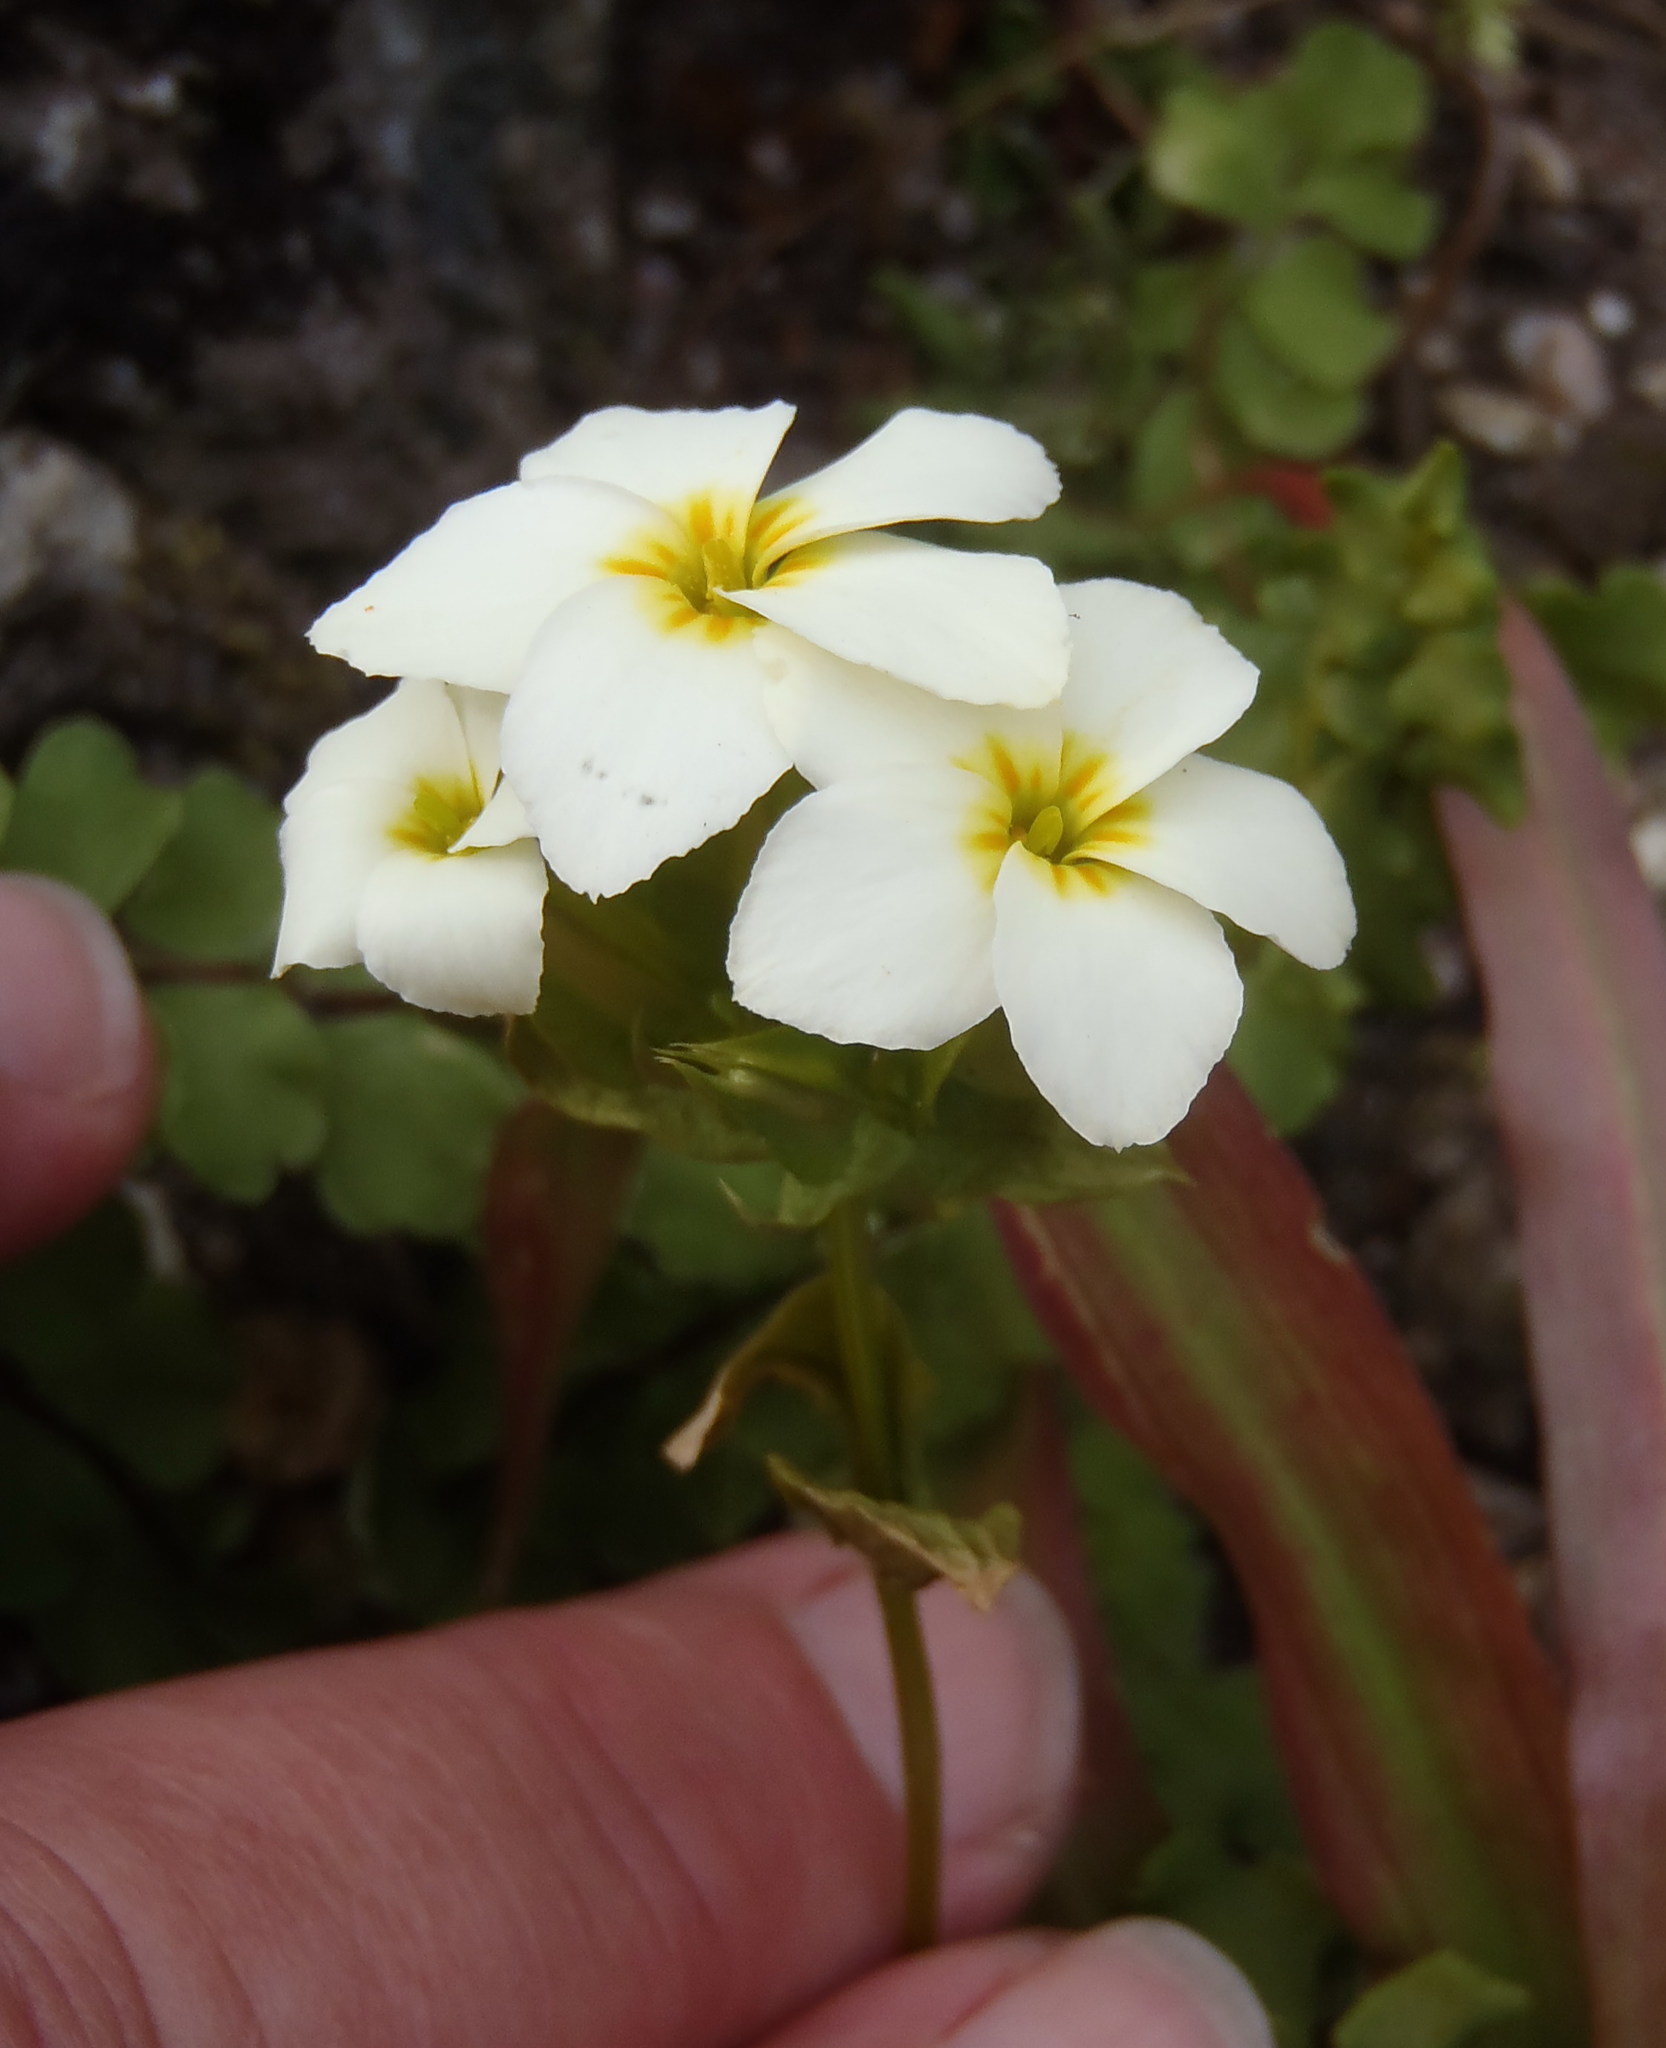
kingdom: Plantae
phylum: Tracheophyta
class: Magnoliopsida
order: Gentianales
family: Gentianaceae
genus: Sebaea
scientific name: Sebaea exacoides
